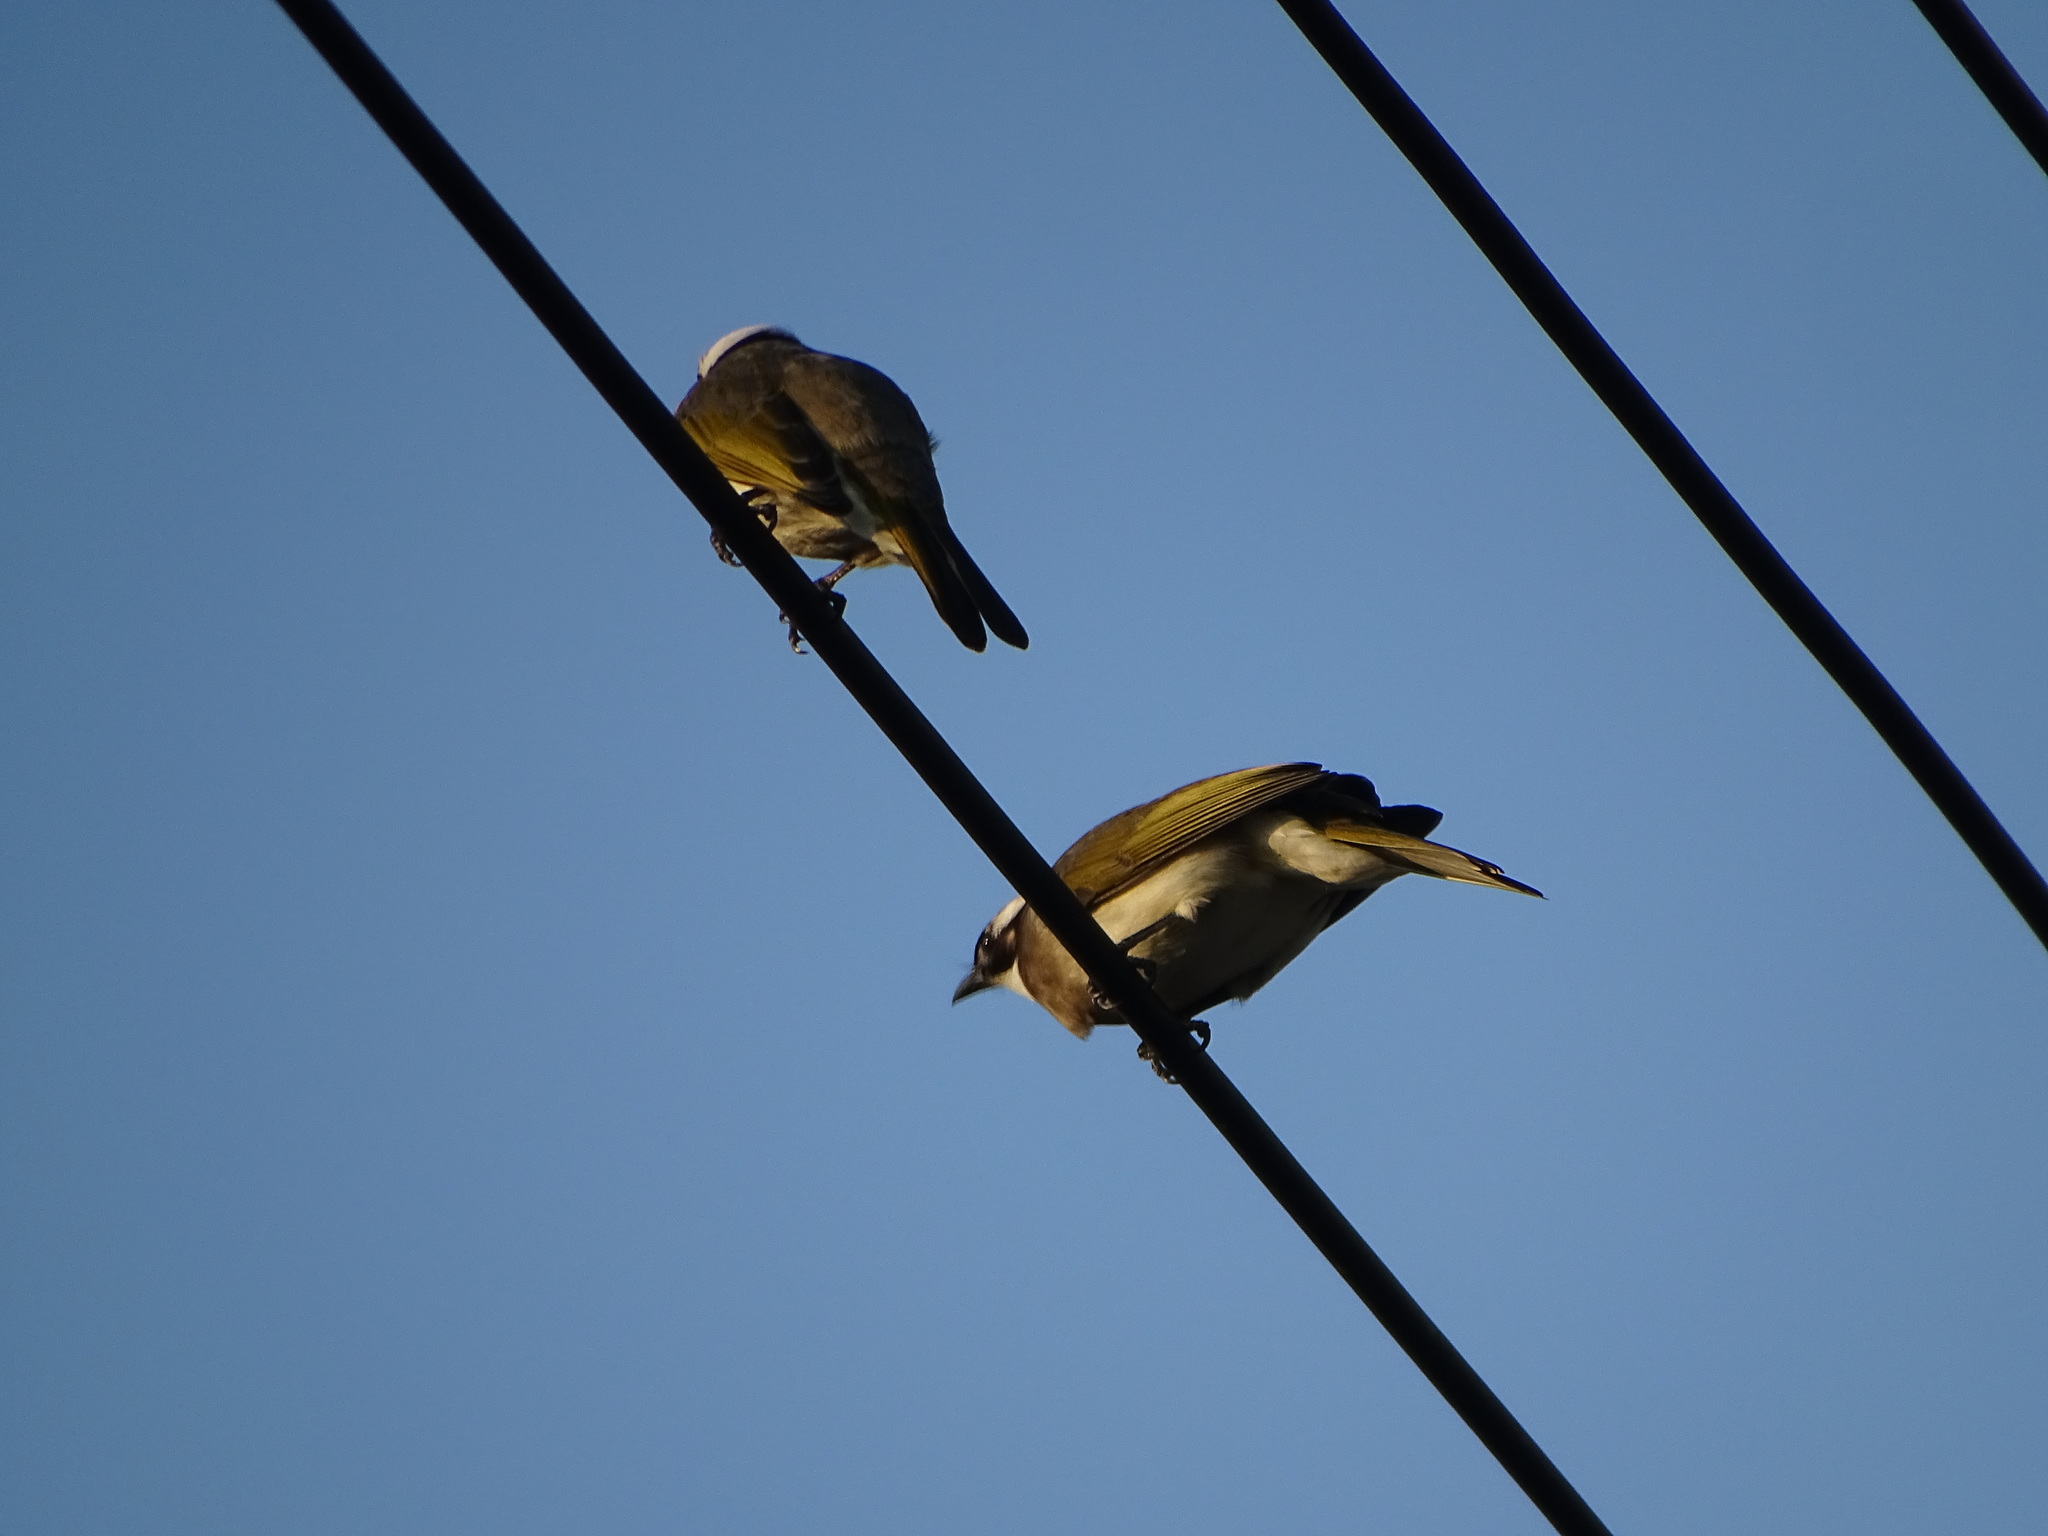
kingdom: Animalia
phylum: Chordata
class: Aves
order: Passeriformes
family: Pycnonotidae
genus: Pycnonotus
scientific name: Pycnonotus sinensis
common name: Light-vented bulbul
